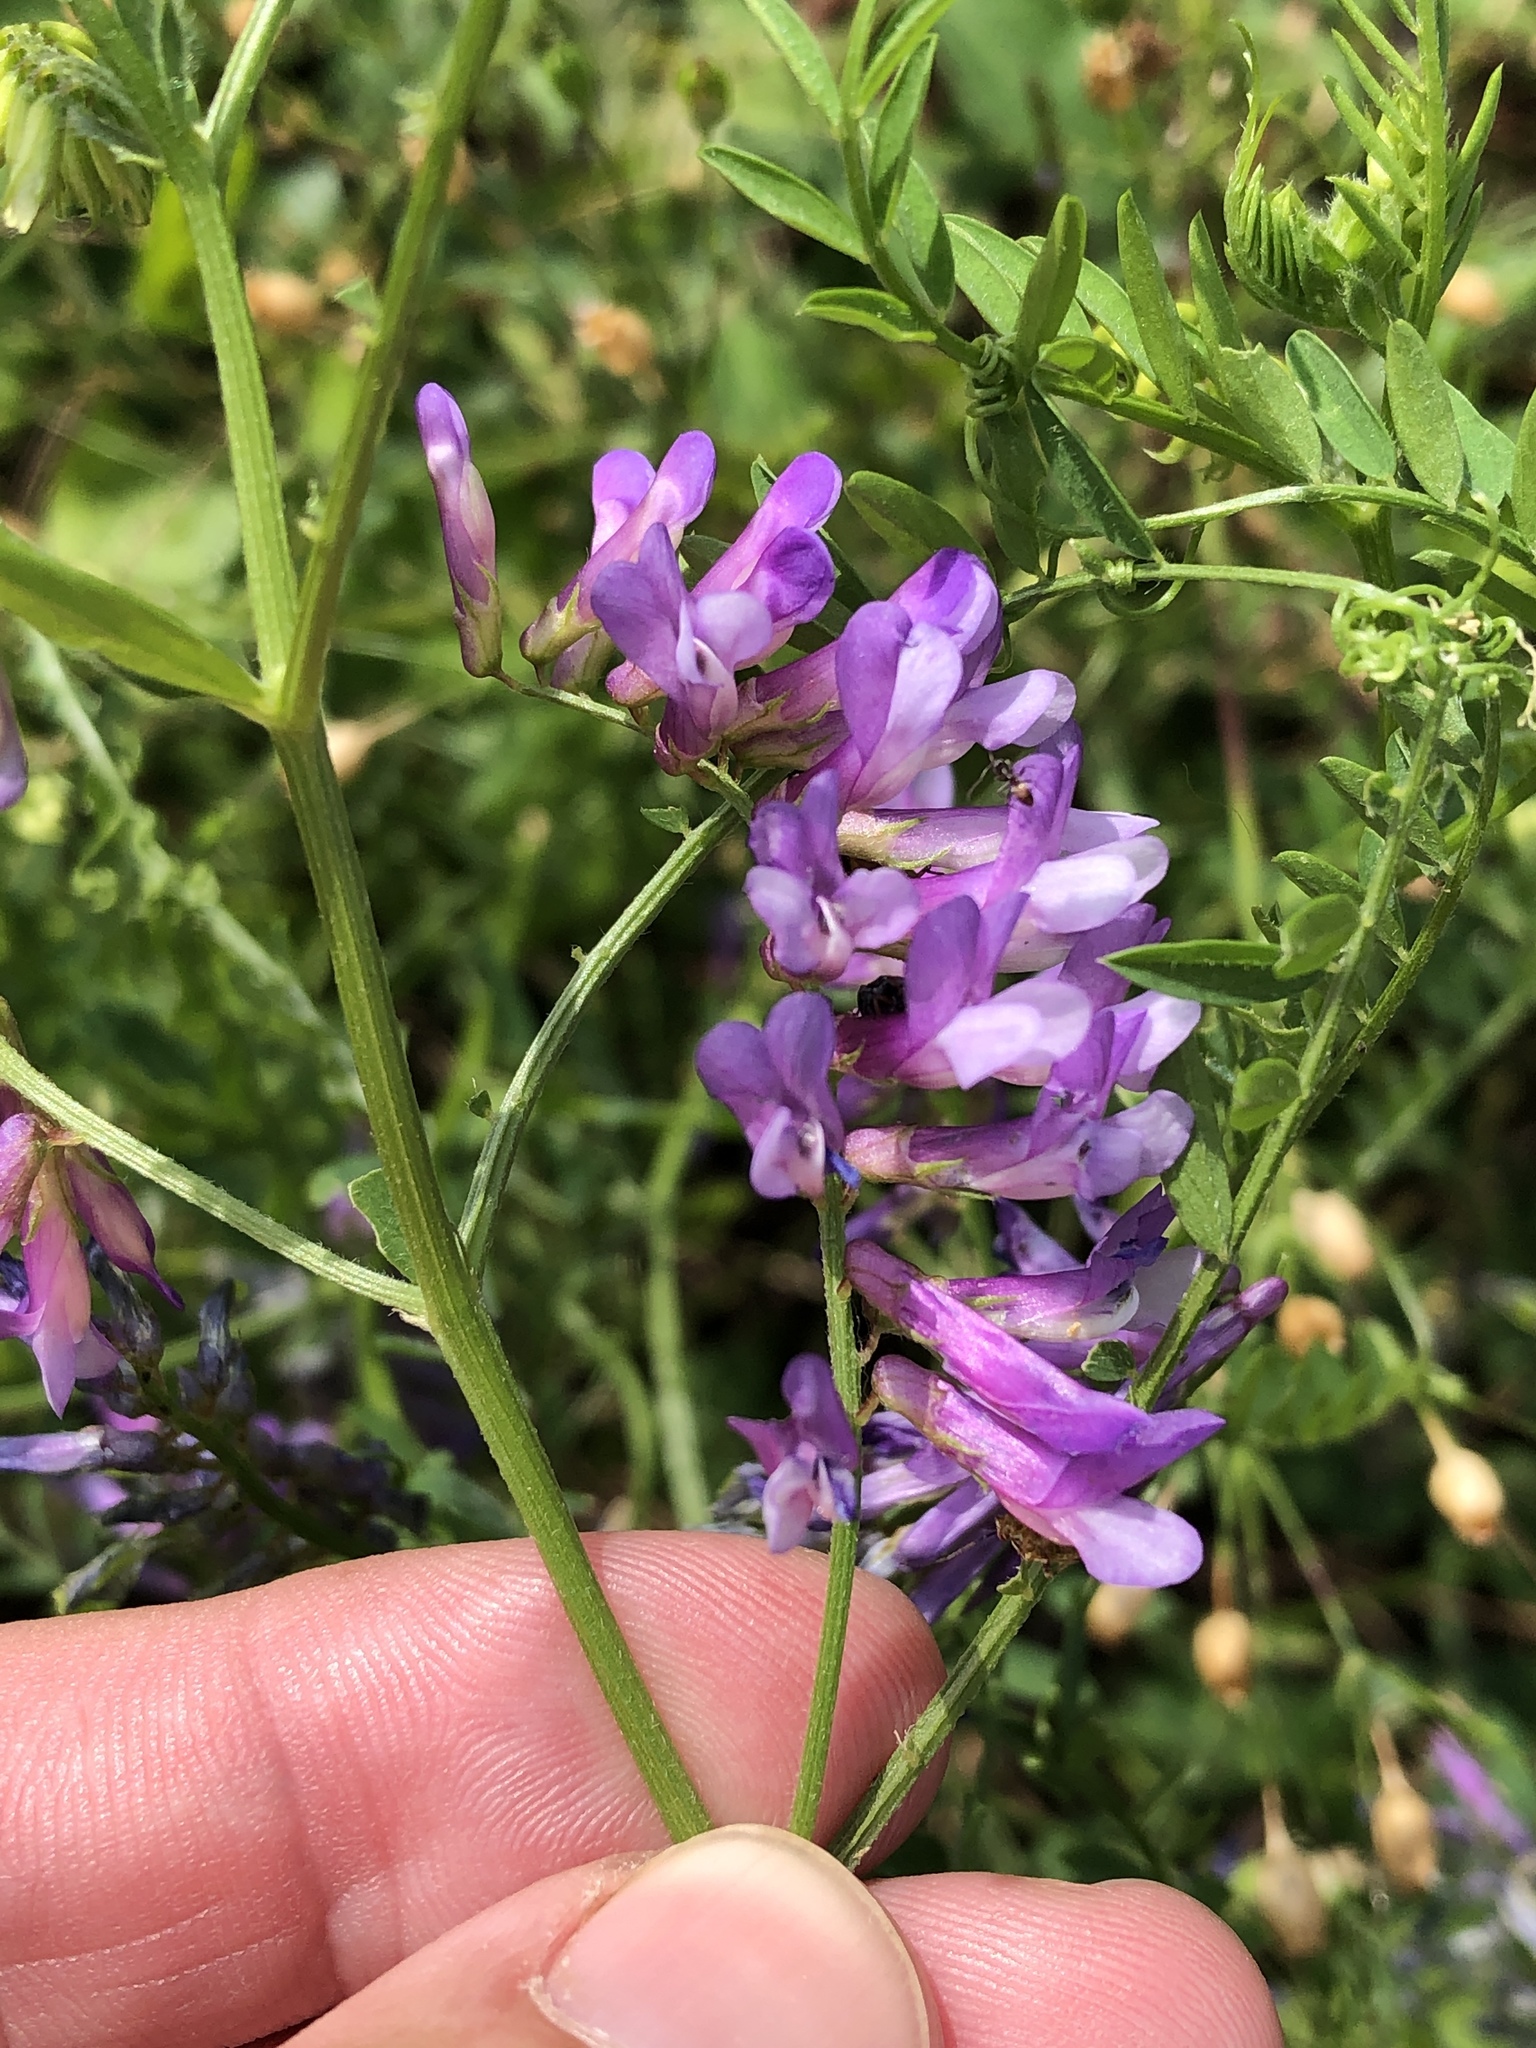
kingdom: Plantae
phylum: Tracheophyta
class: Magnoliopsida
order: Fabales
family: Fabaceae
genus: Vicia
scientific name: Vicia villosa
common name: Fodder vetch
